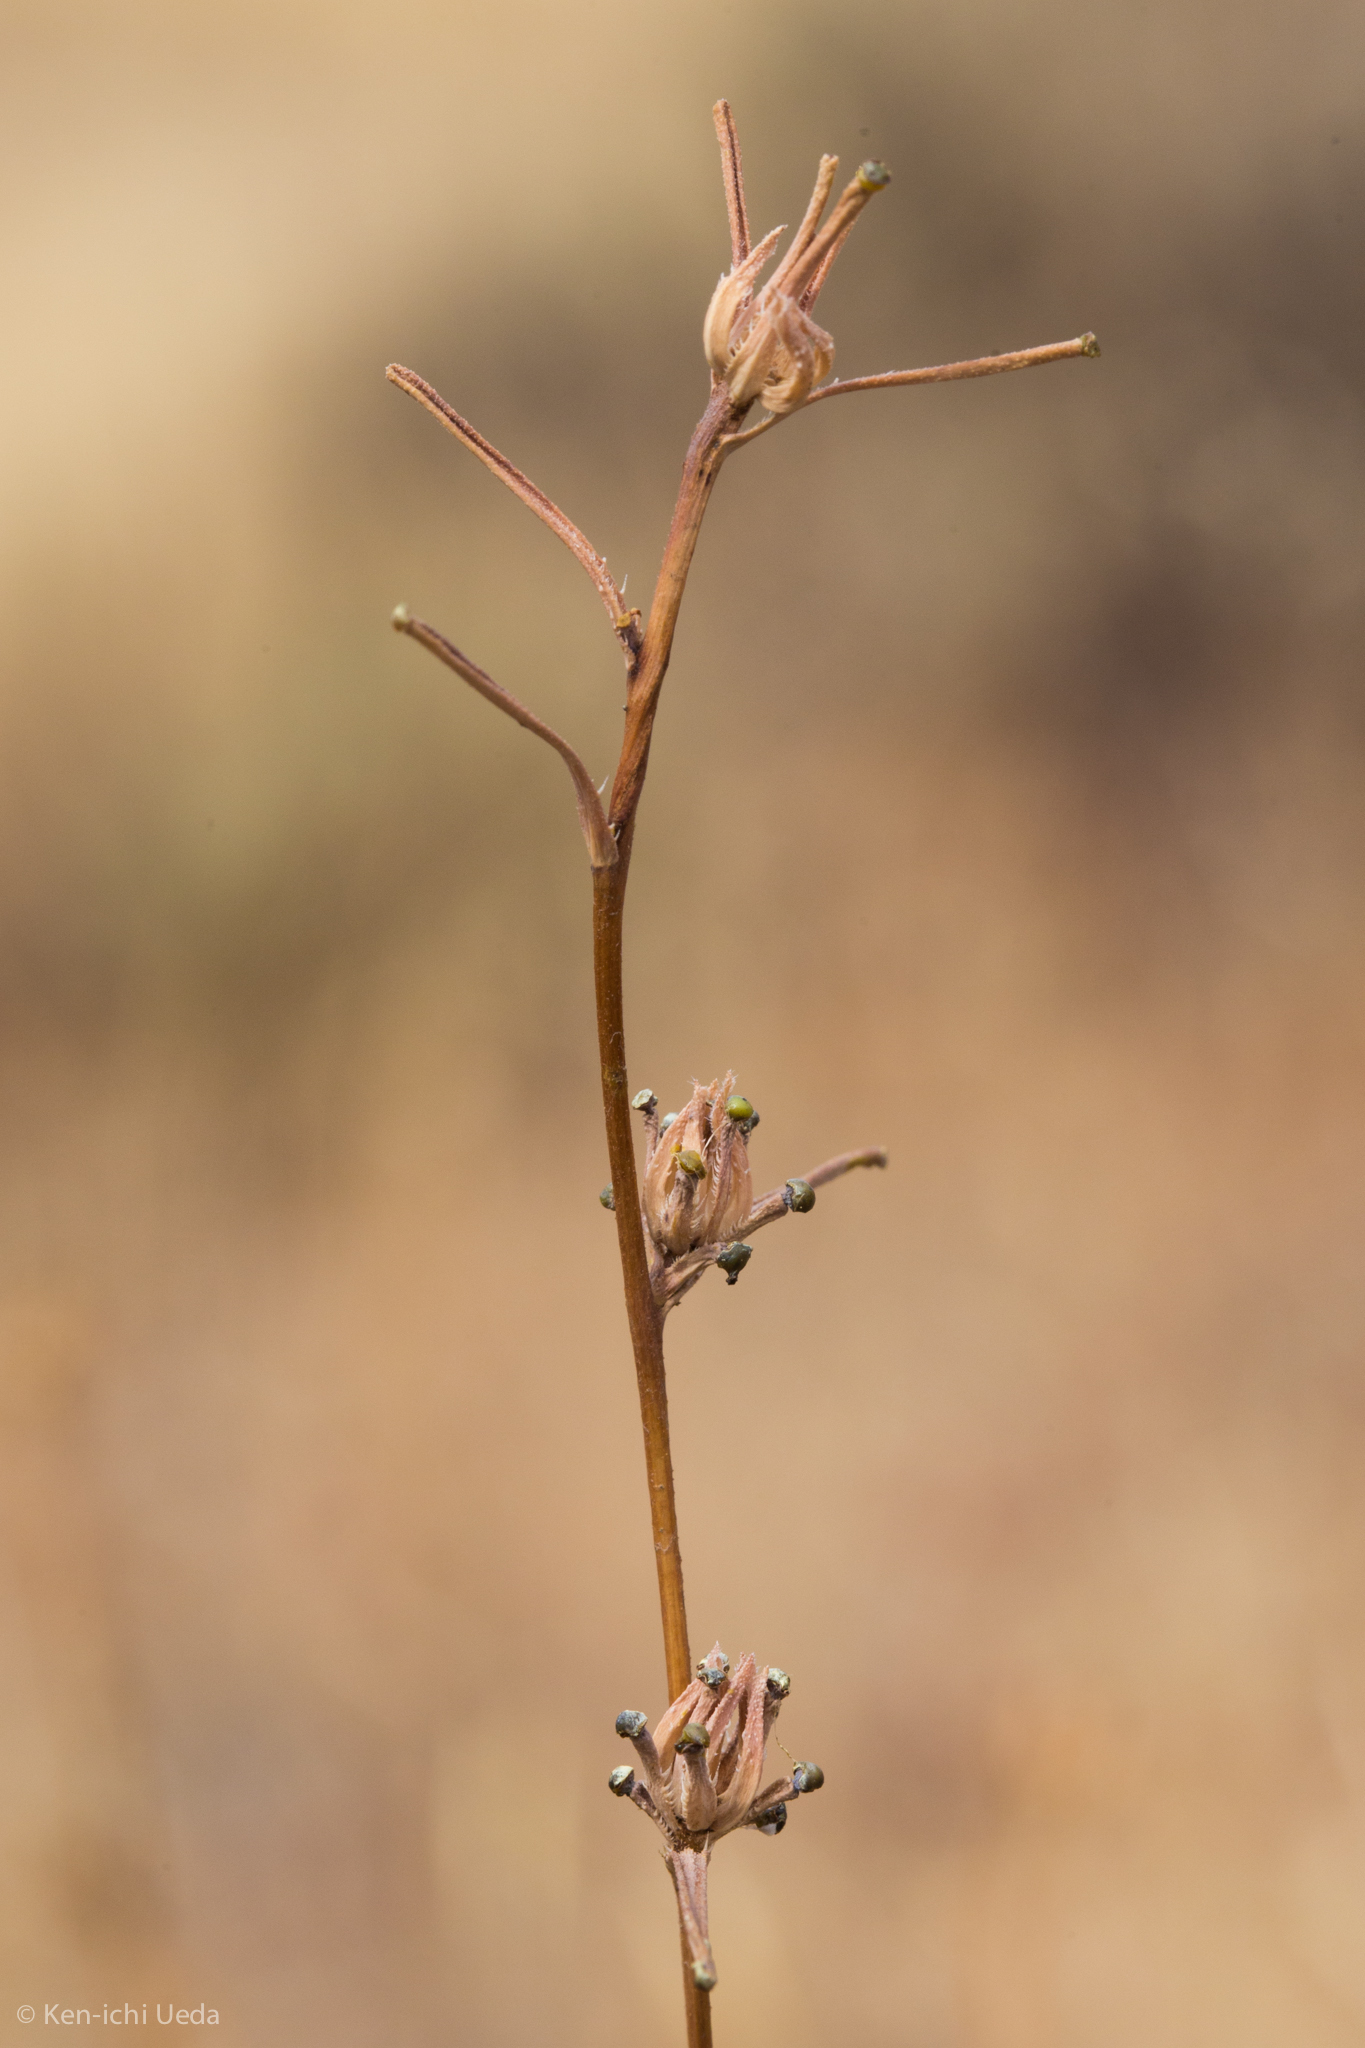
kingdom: Plantae
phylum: Tracheophyta
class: Magnoliopsida
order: Asterales
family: Asteraceae
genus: Calycadenia
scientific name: Calycadenia truncata
